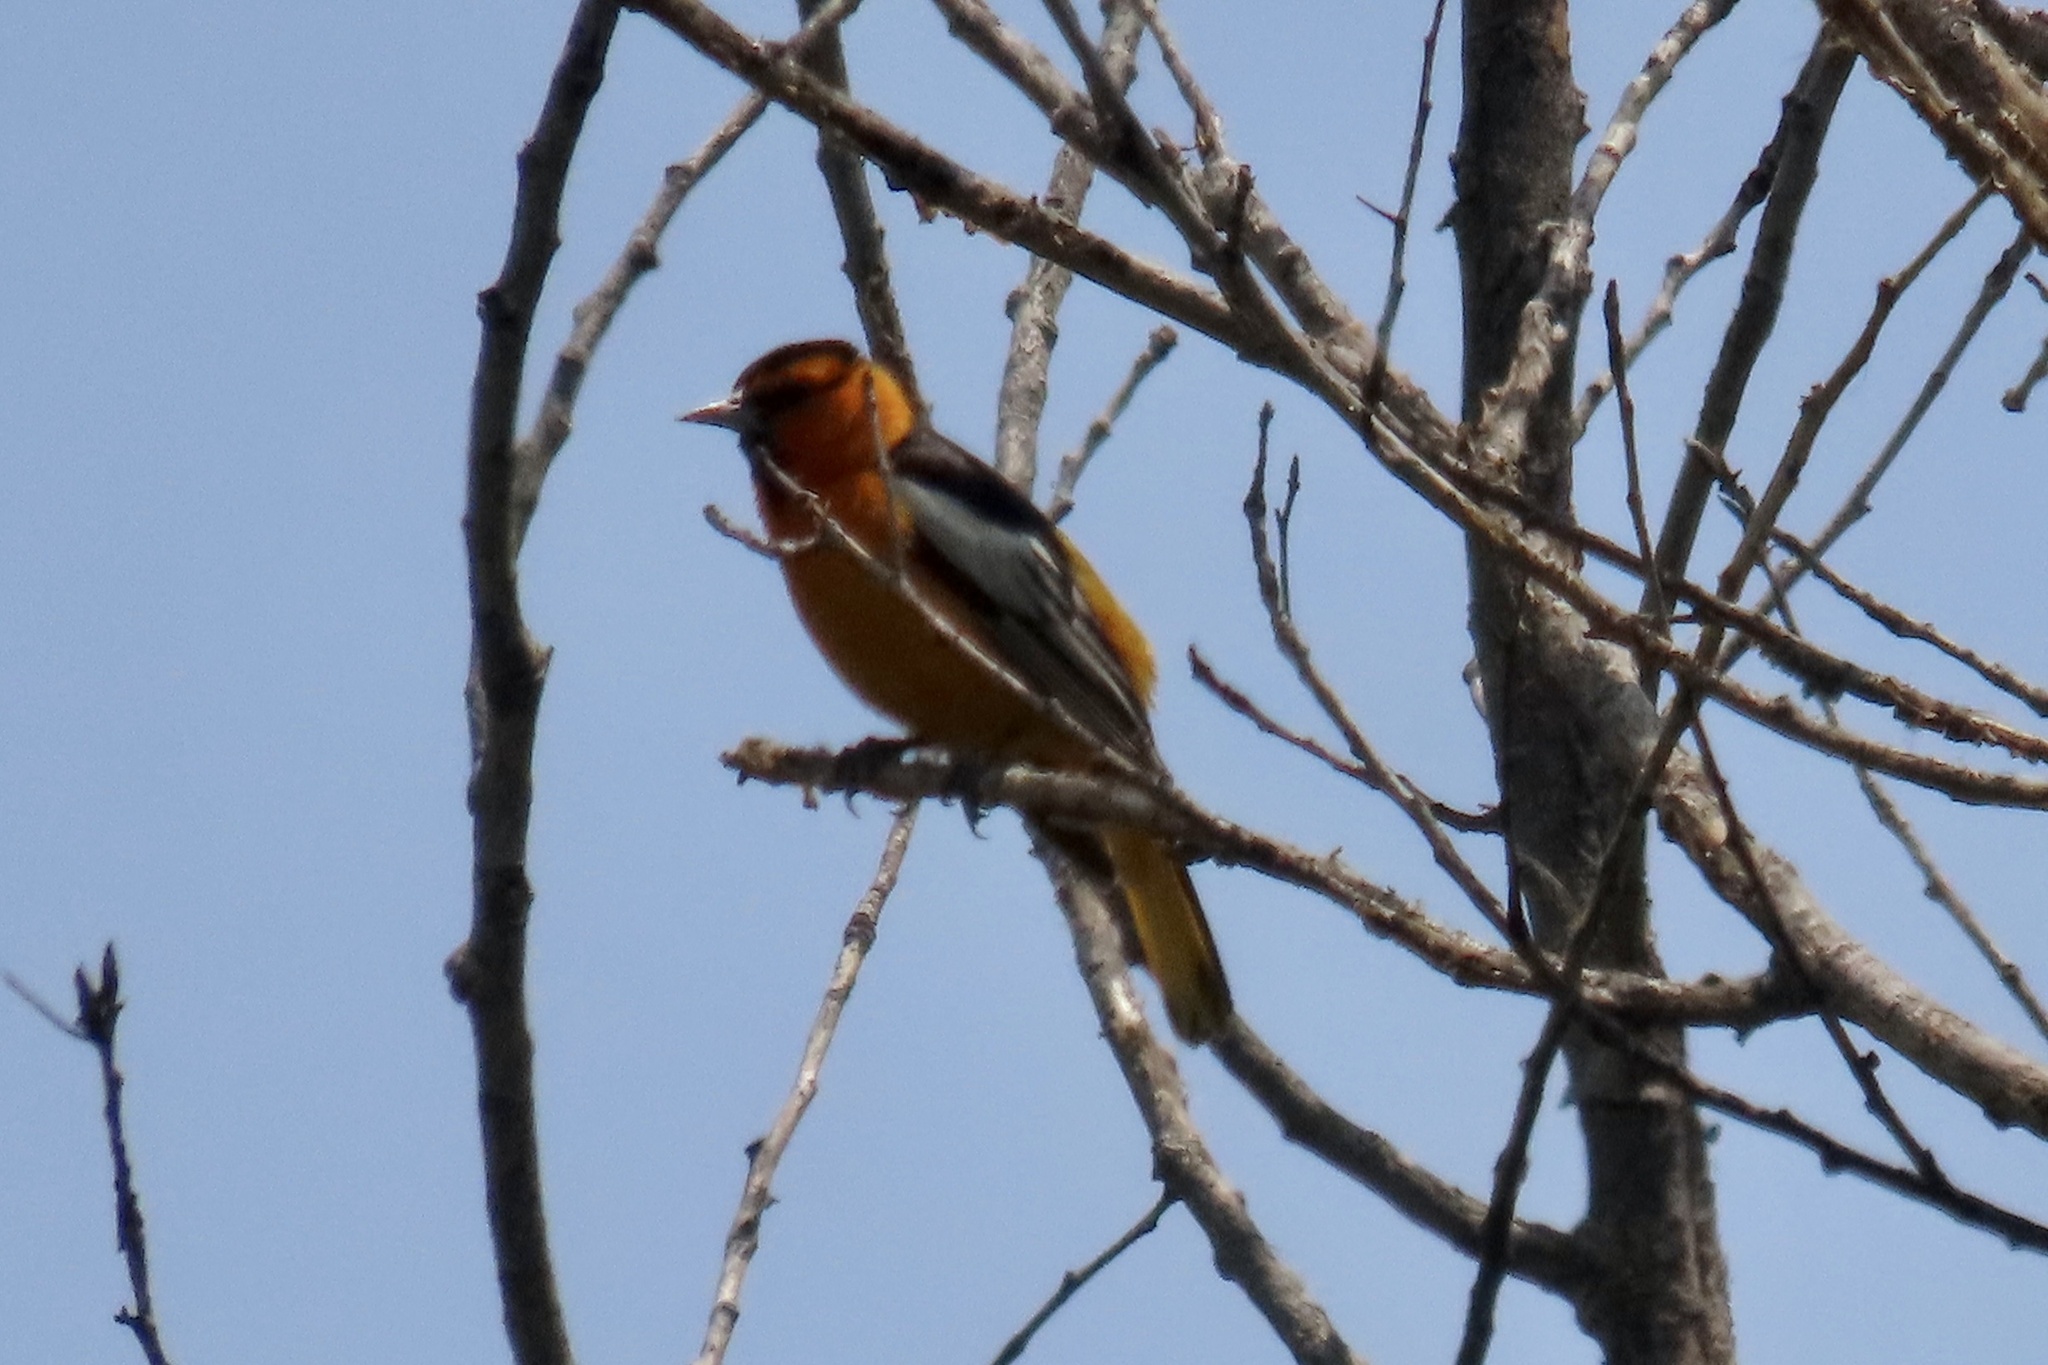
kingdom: Animalia
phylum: Chordata
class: Aves
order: Passeriformes
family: Icteridae
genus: Icterus
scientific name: Icterus bullockii
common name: Bullock's oriole
